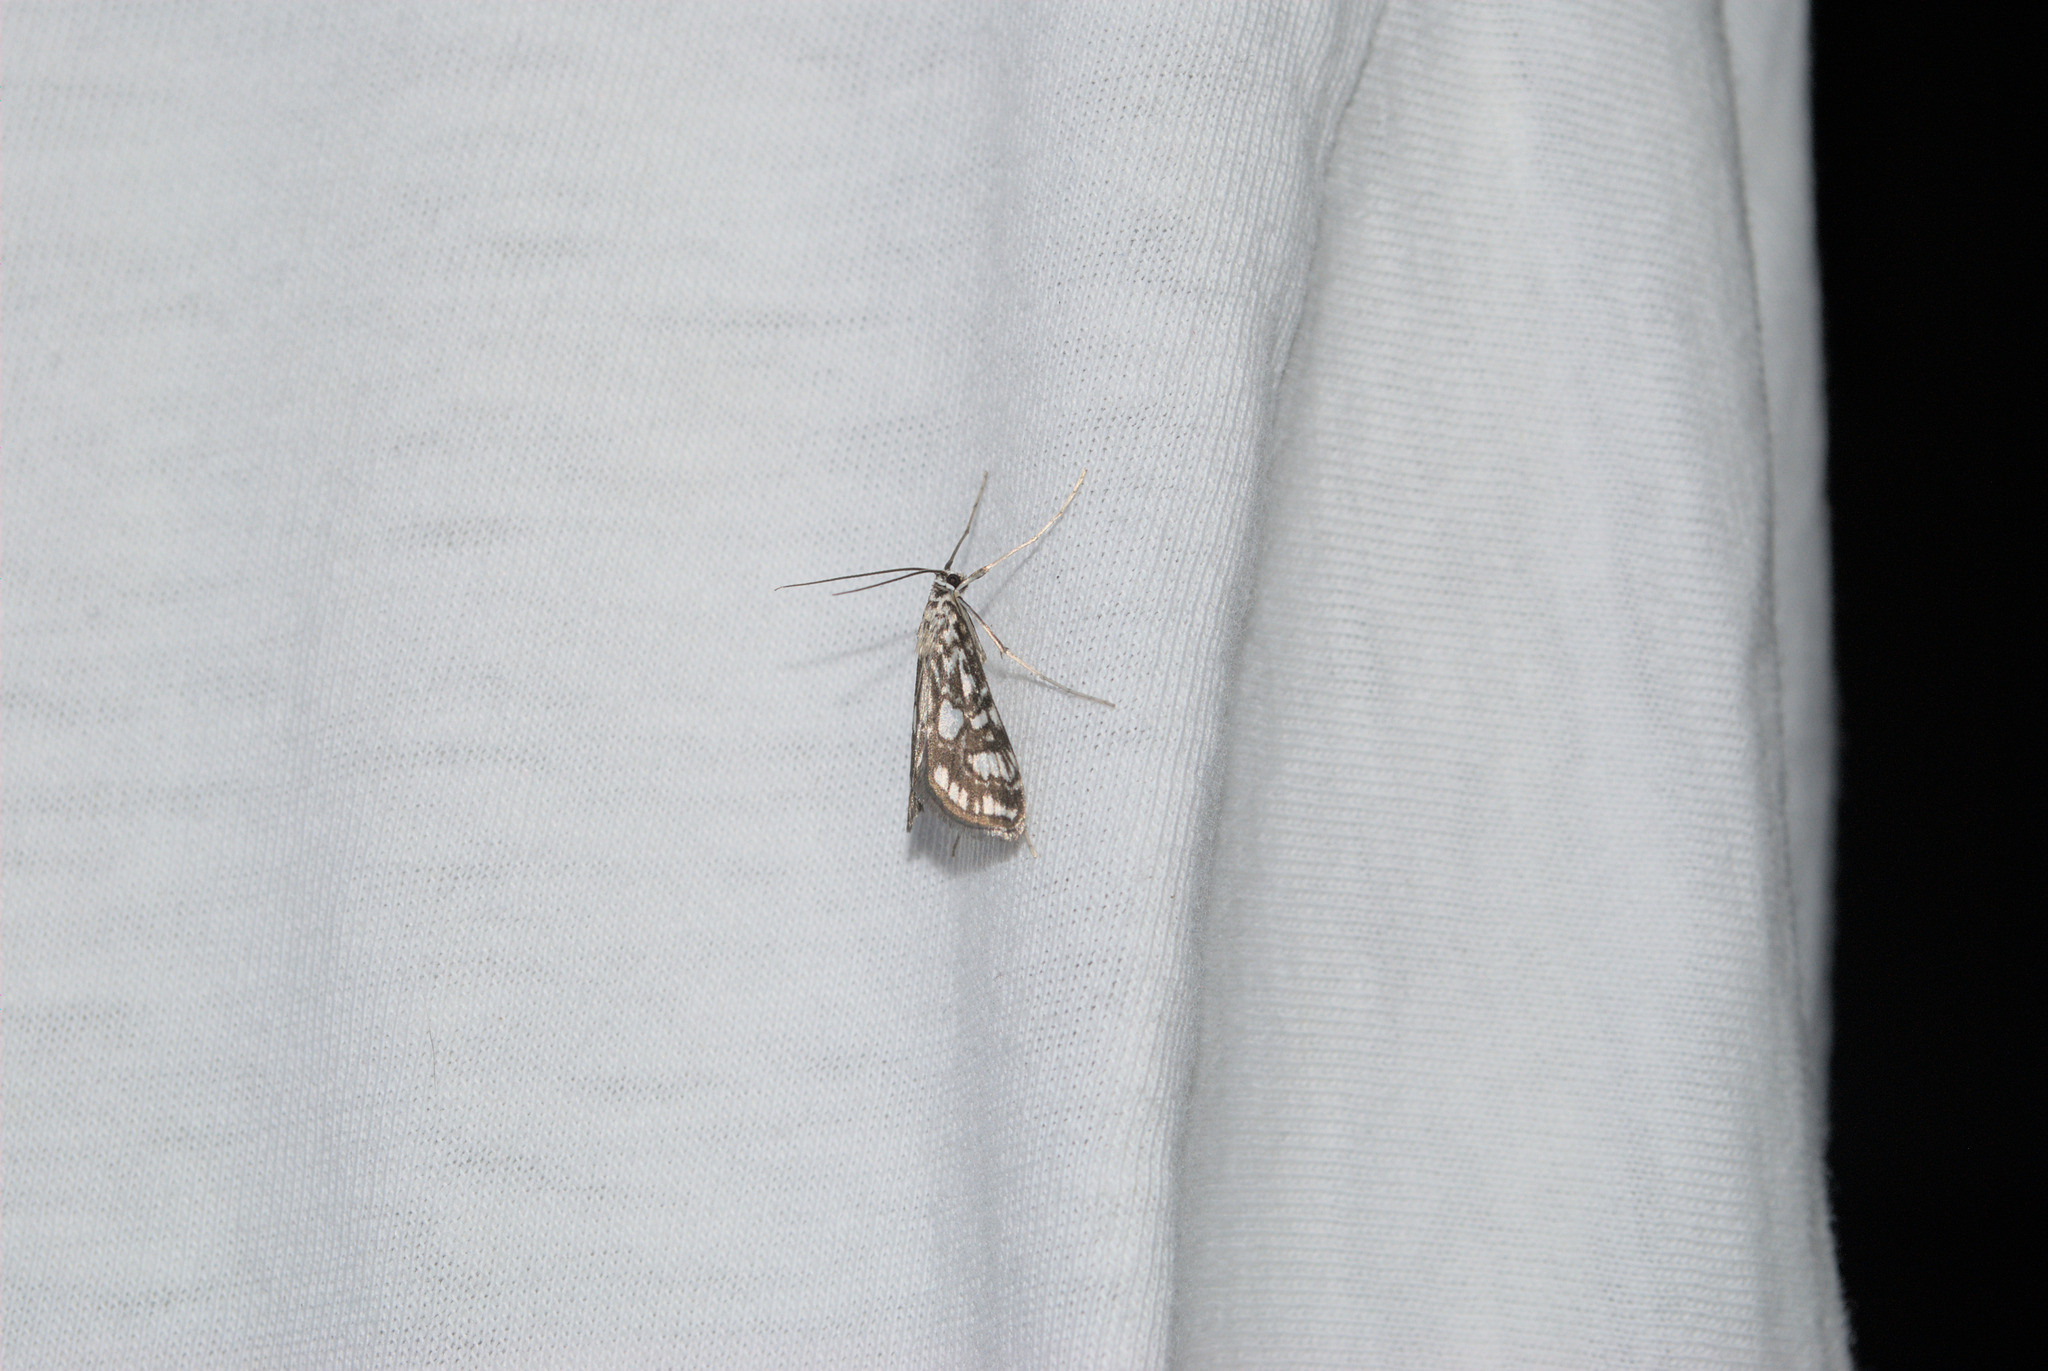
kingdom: Animalia
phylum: Arthropoda
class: Insecta
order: Lepidoptera
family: Crambidae
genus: Elophila
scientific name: Elophila nymphaeata
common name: Brown china-mark
